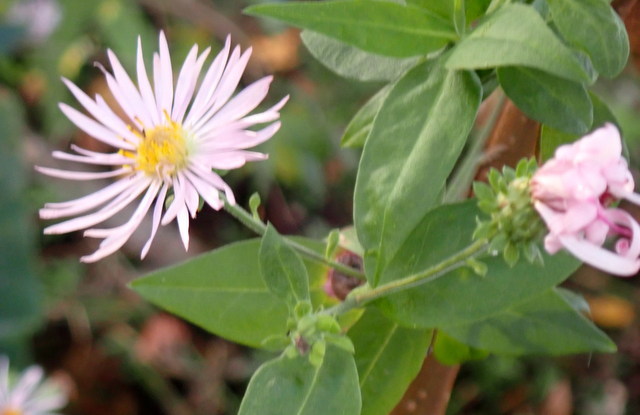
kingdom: Plantae
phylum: Tracheophyta
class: Magnoliopsida
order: Asterales
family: Asteraceae
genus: Ampelaster
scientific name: Ampelaster carolinianus
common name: Climbing aster
